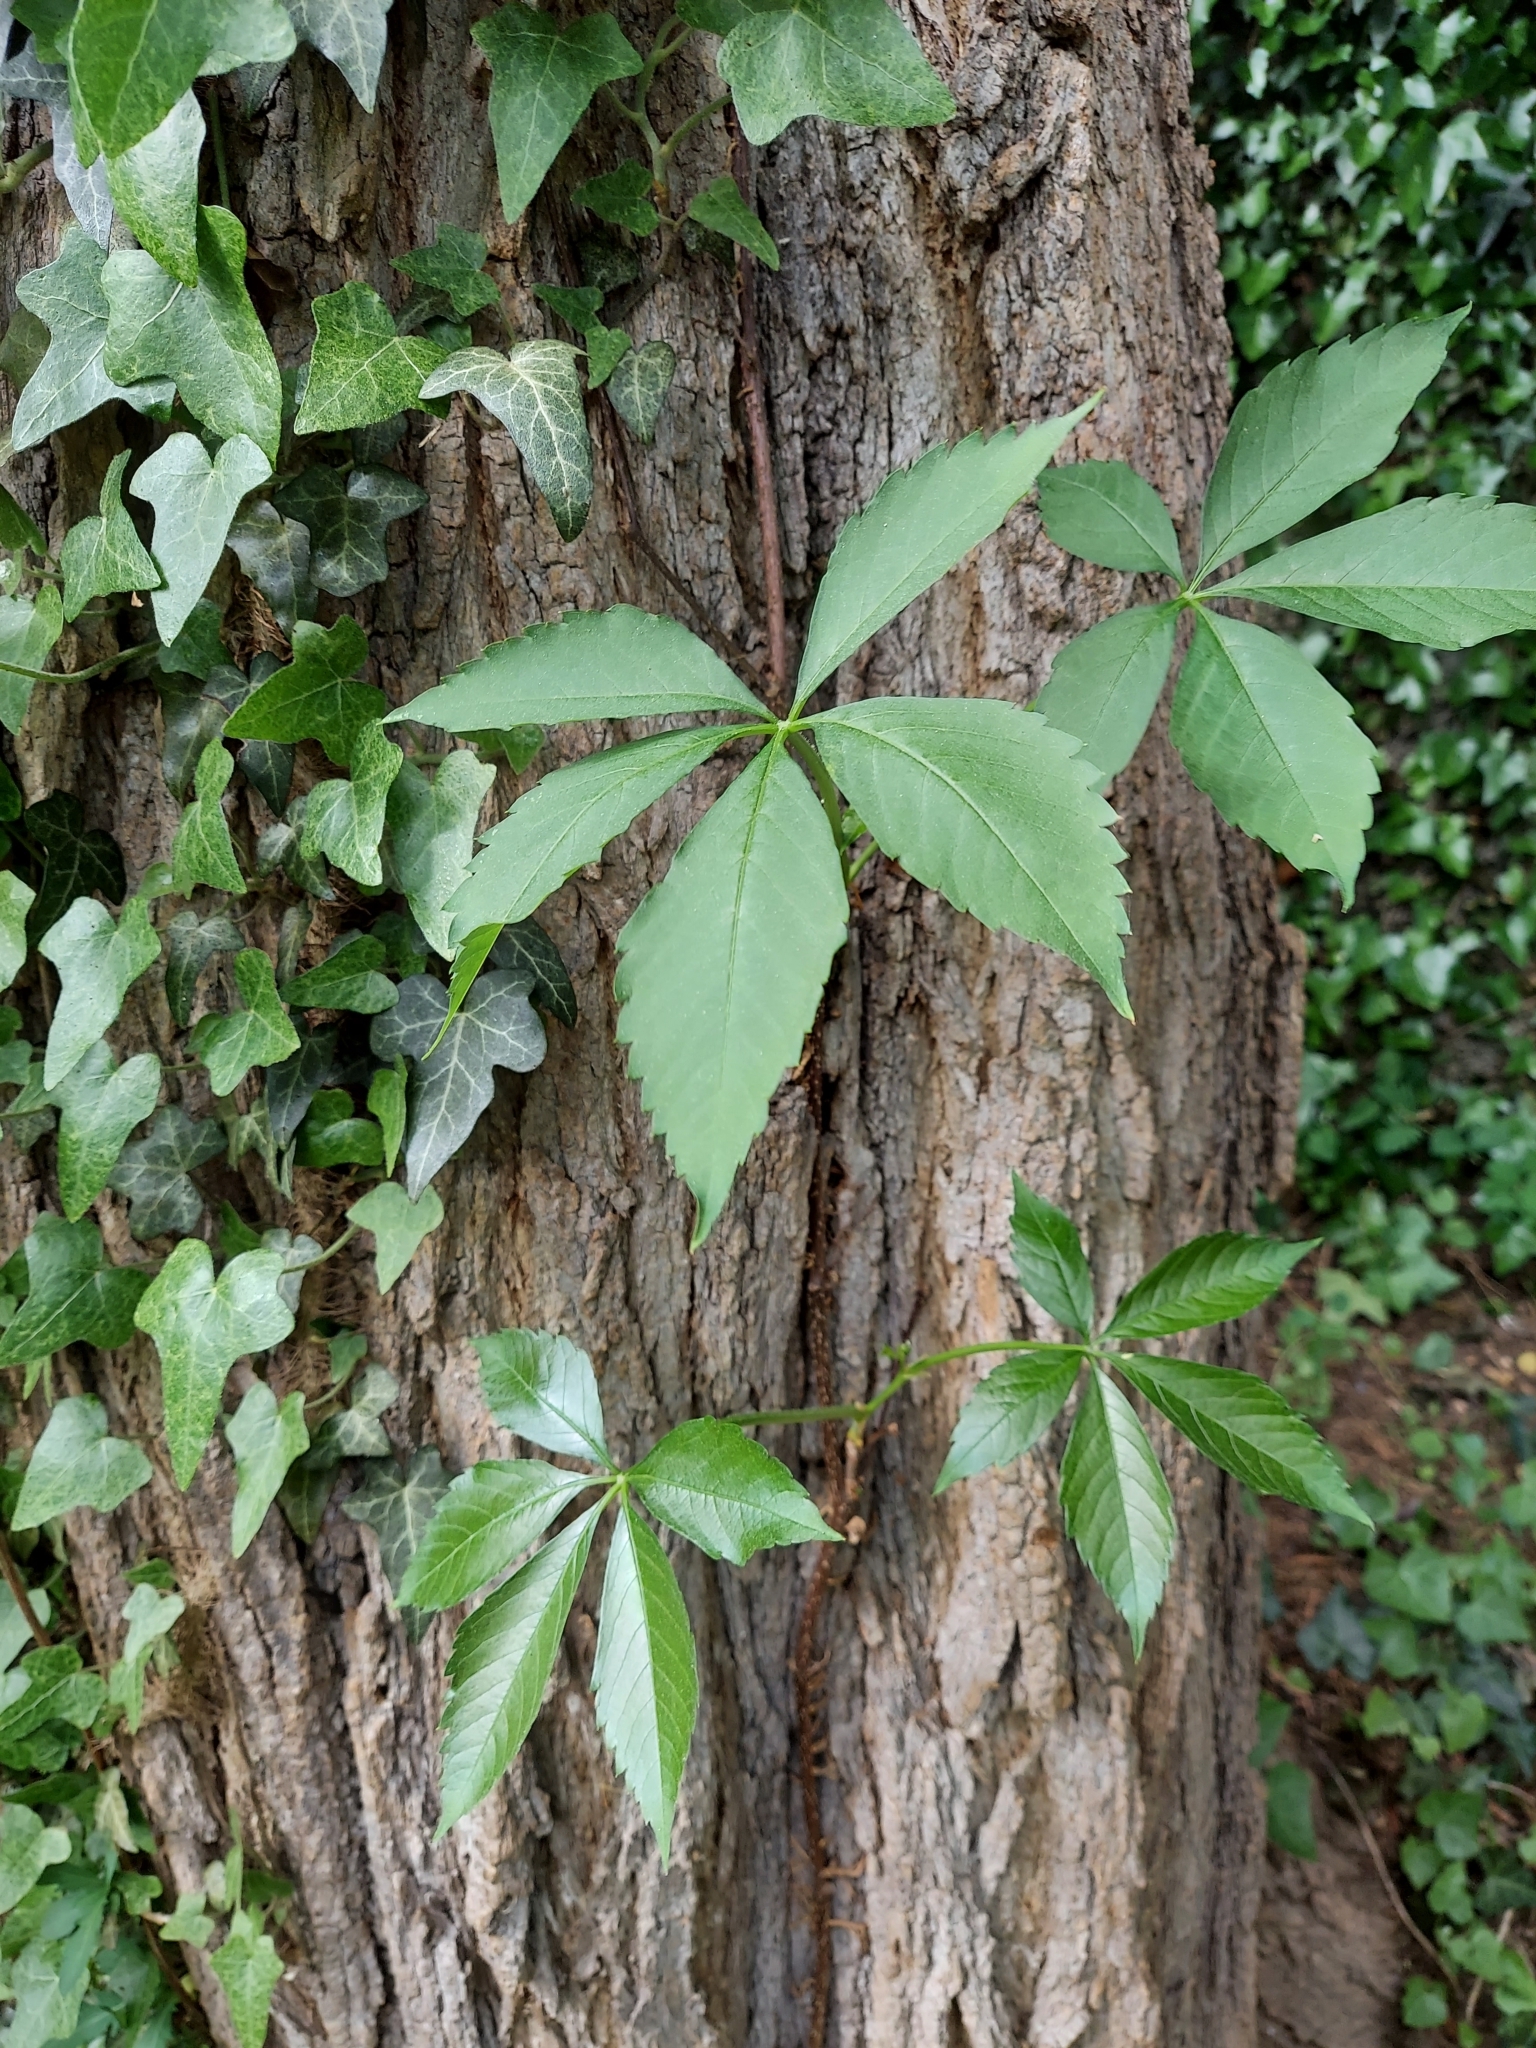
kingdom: Plantae
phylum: Tracheophyta
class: Magnoliopsida
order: Vitales
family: Vitaceae
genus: Parthenocissus
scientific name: Parthenocissus quinquefolia
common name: Virginia-creeper
